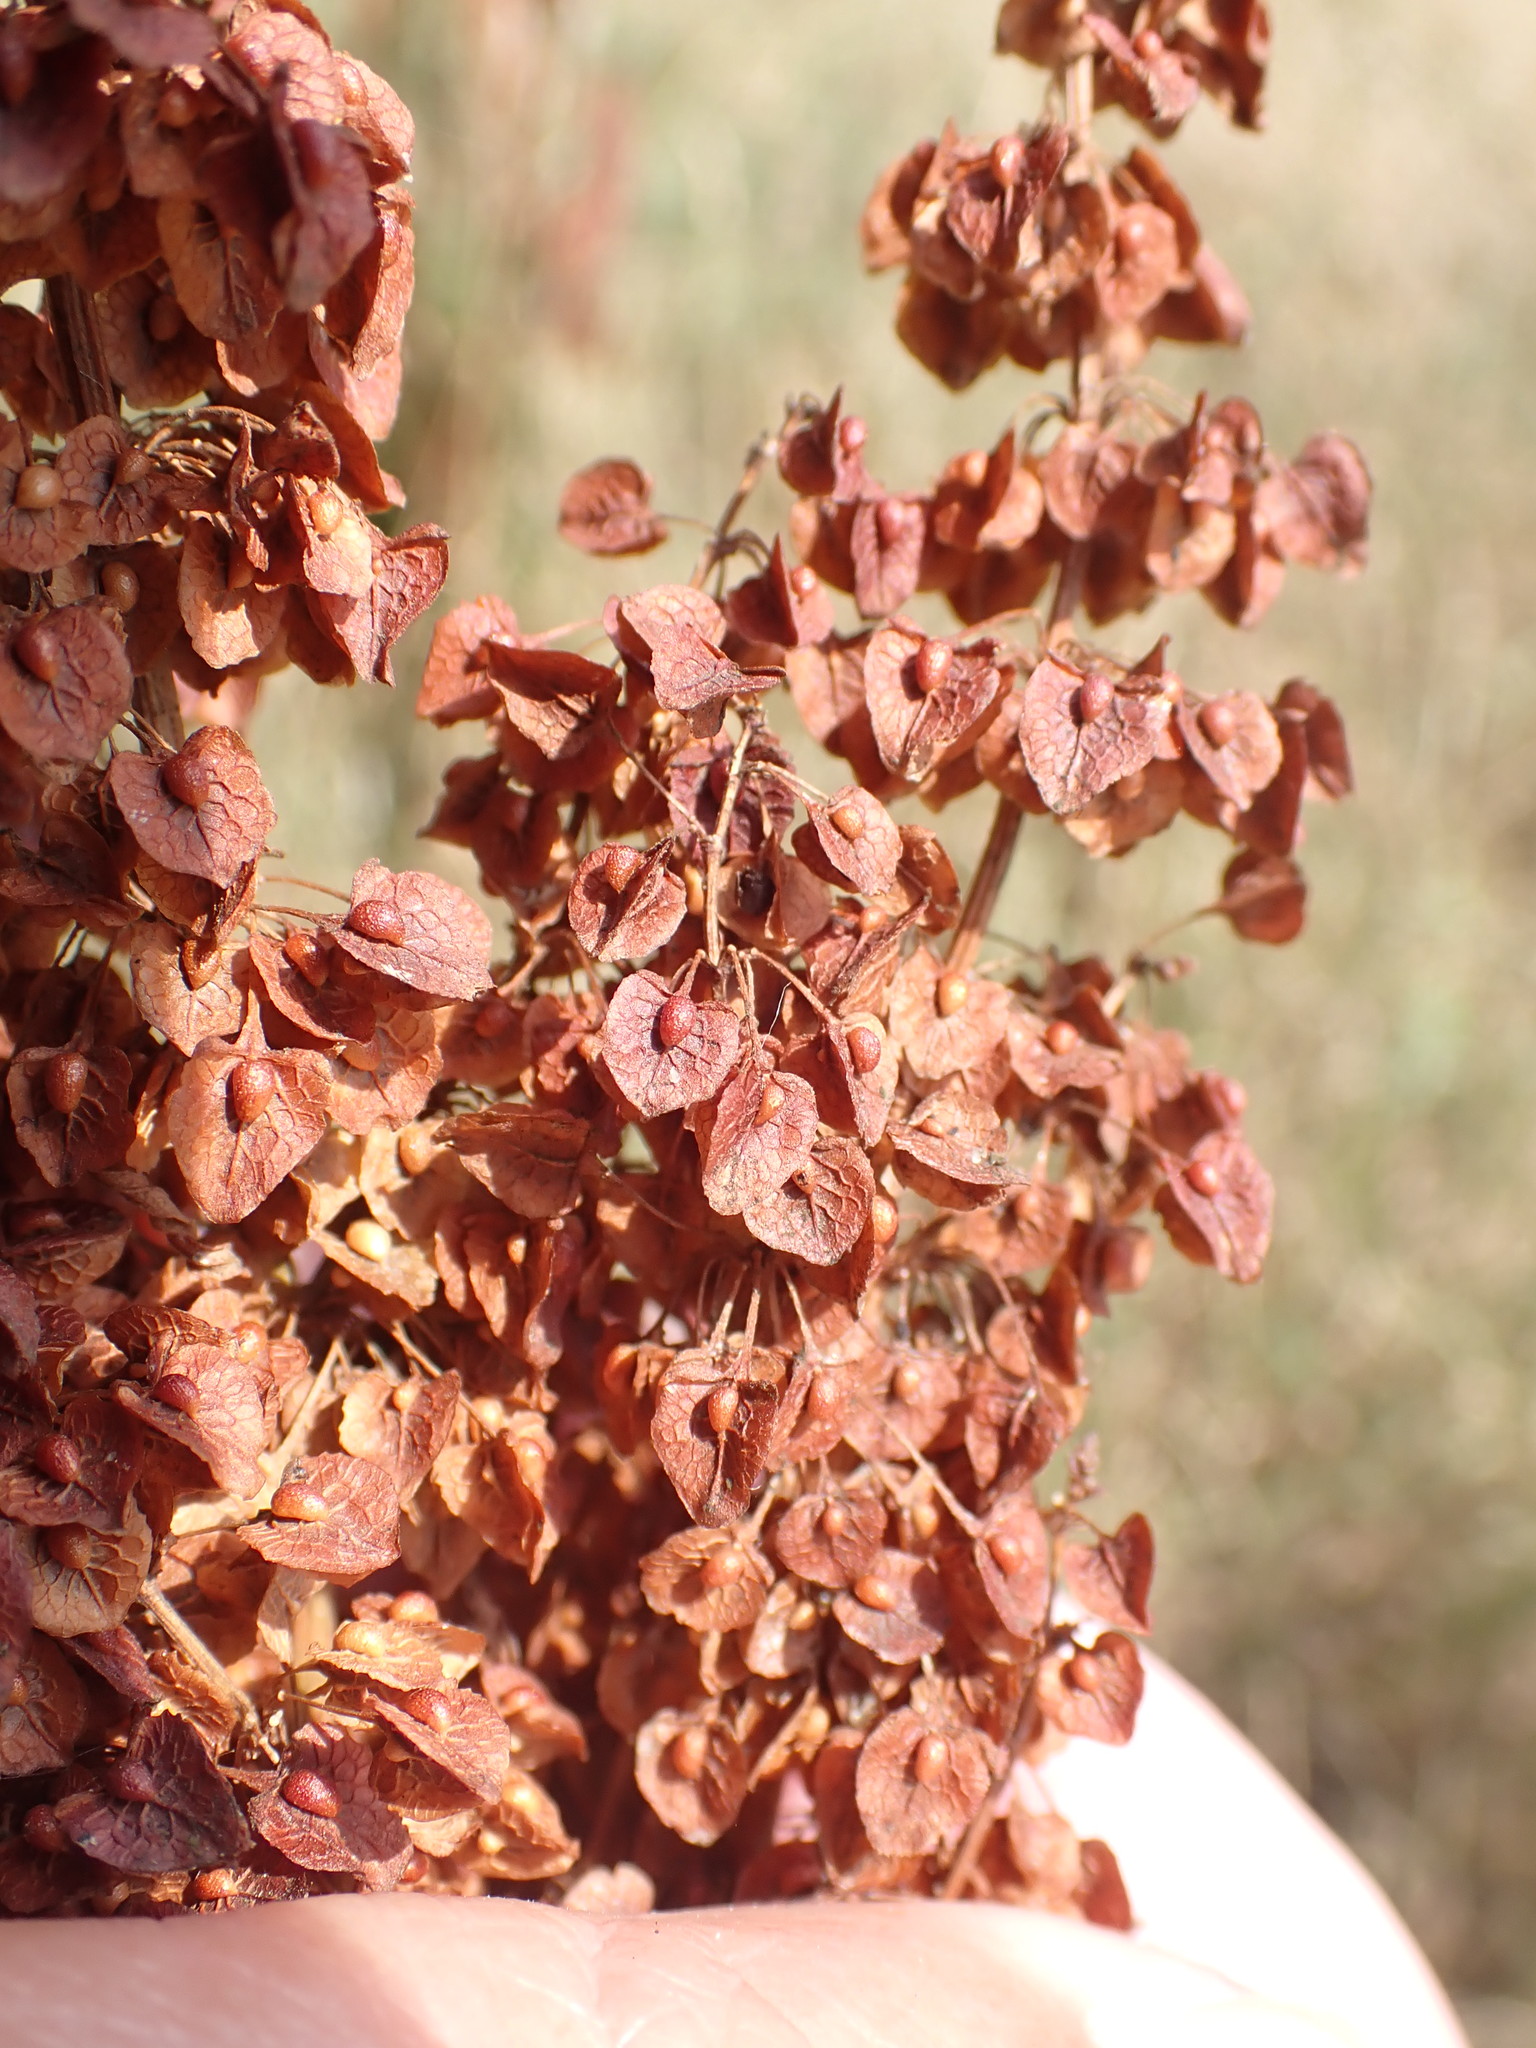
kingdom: Plantae
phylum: Tracheophyta
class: Magnoliopsida
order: Caryophyllales
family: Polygonaceae
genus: Rumex
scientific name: Rumex crispus
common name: Curled dock
